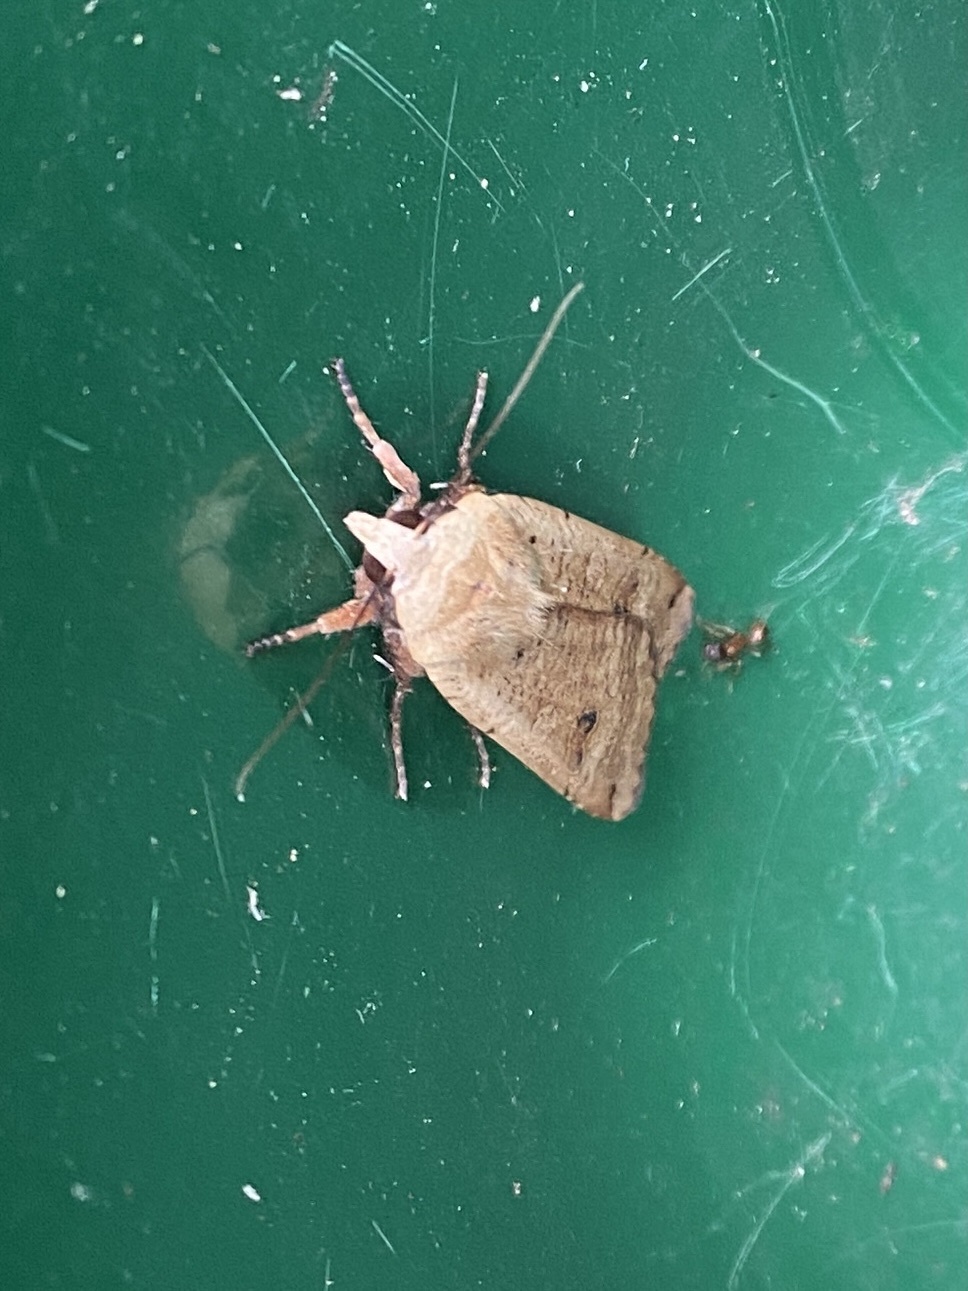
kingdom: Animalia
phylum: Arthropoda
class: Insecta
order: Lepidoptera
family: Noctuidae
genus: Noctua
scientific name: Noctua pronuba
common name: Large yellow underwing
